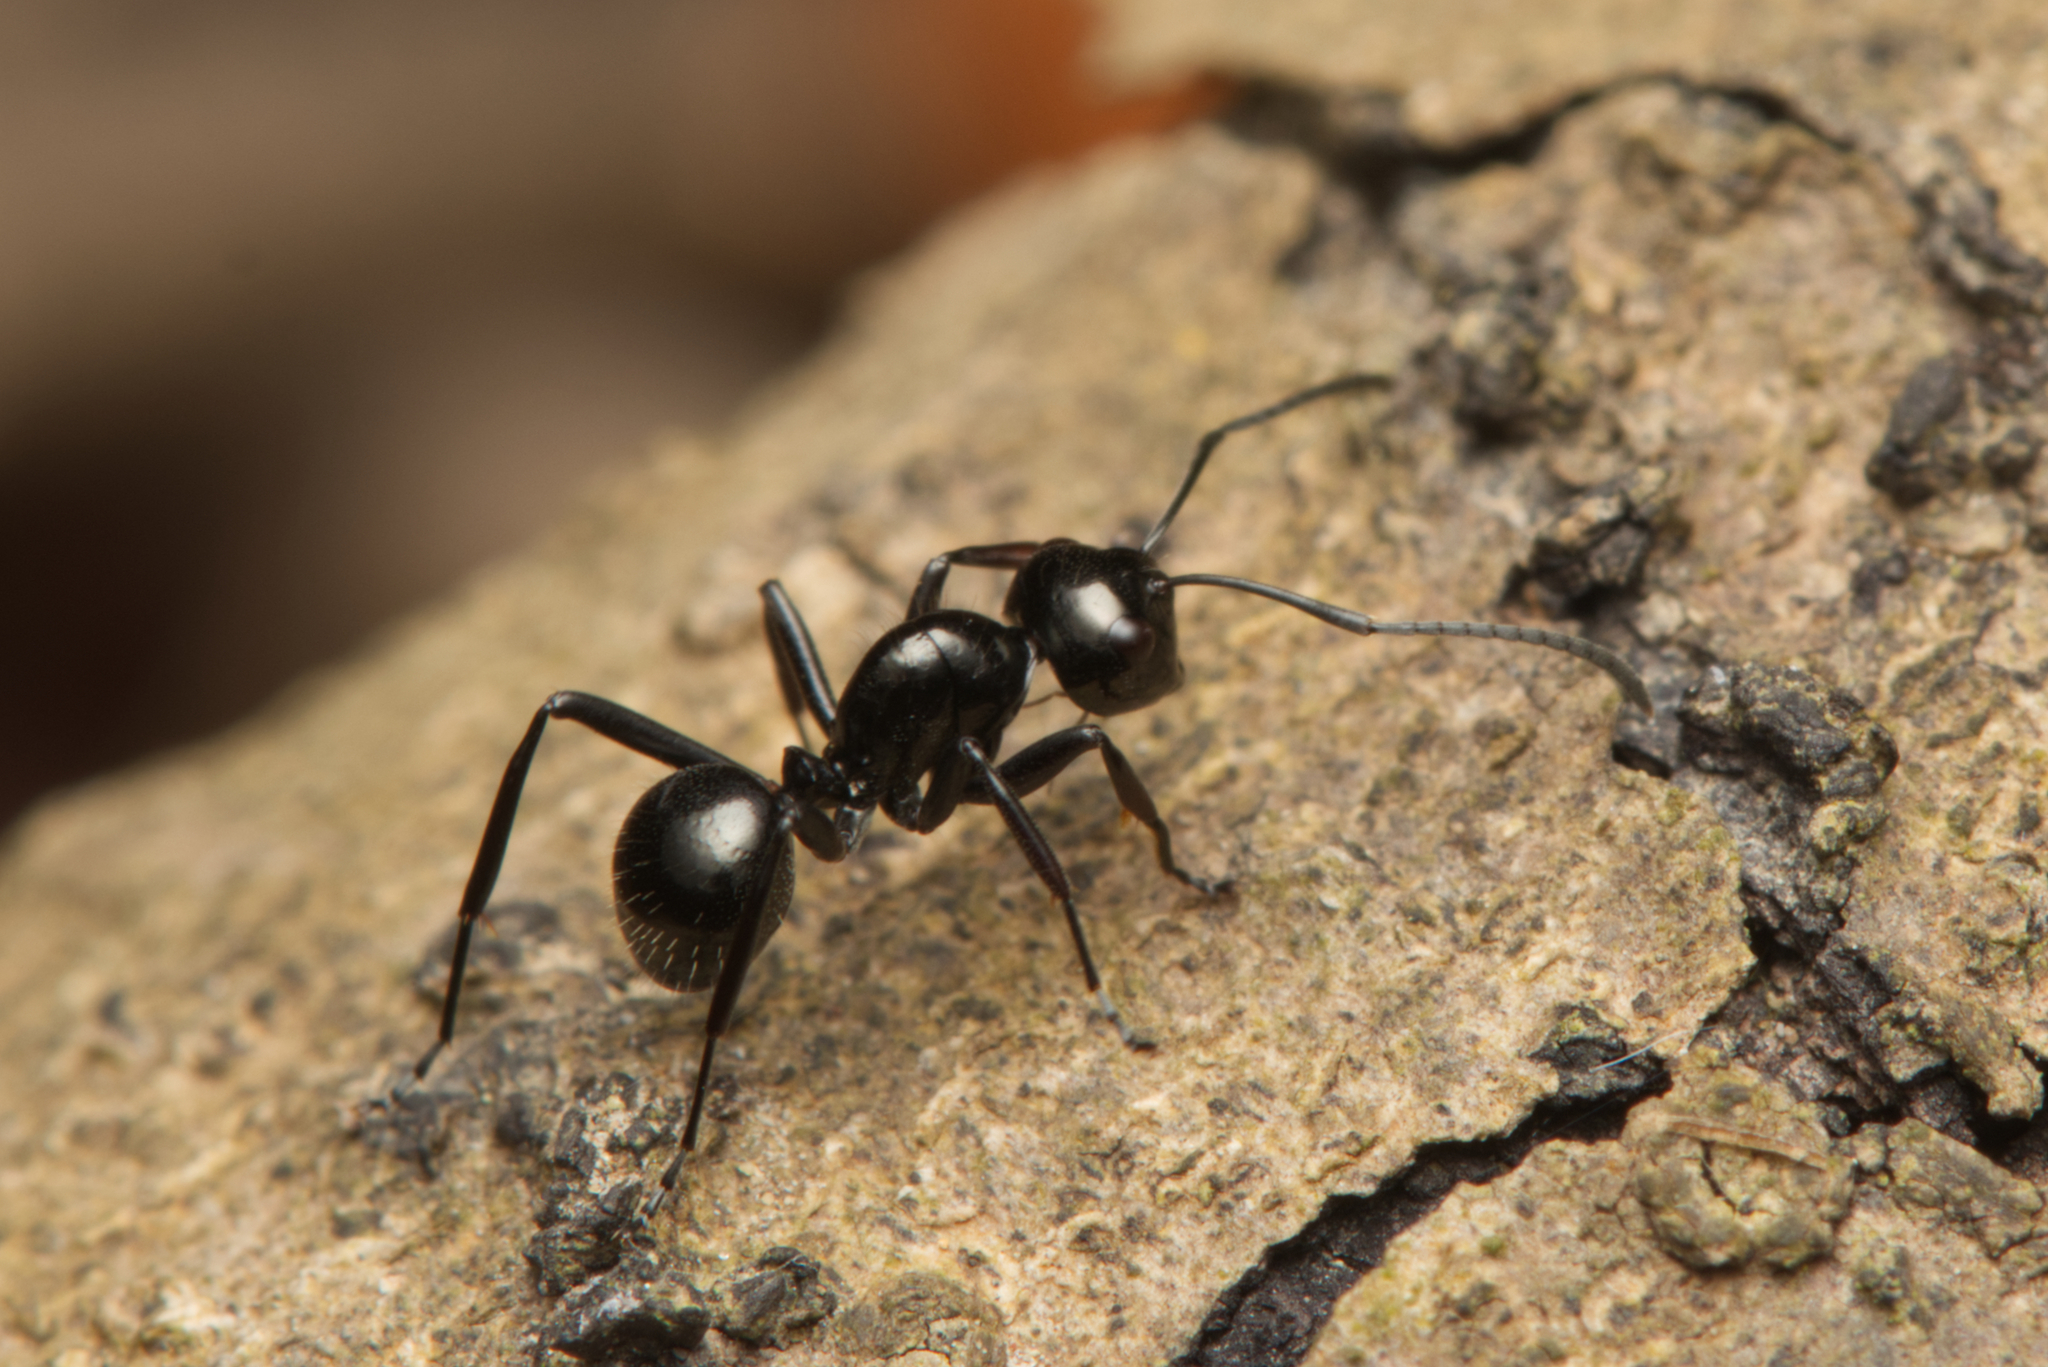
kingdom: Animalia
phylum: Arthropoda
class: Insecta
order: Hymenoptera
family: Formicidae
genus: Polyrhachis
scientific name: Polyrhachis pilosa
